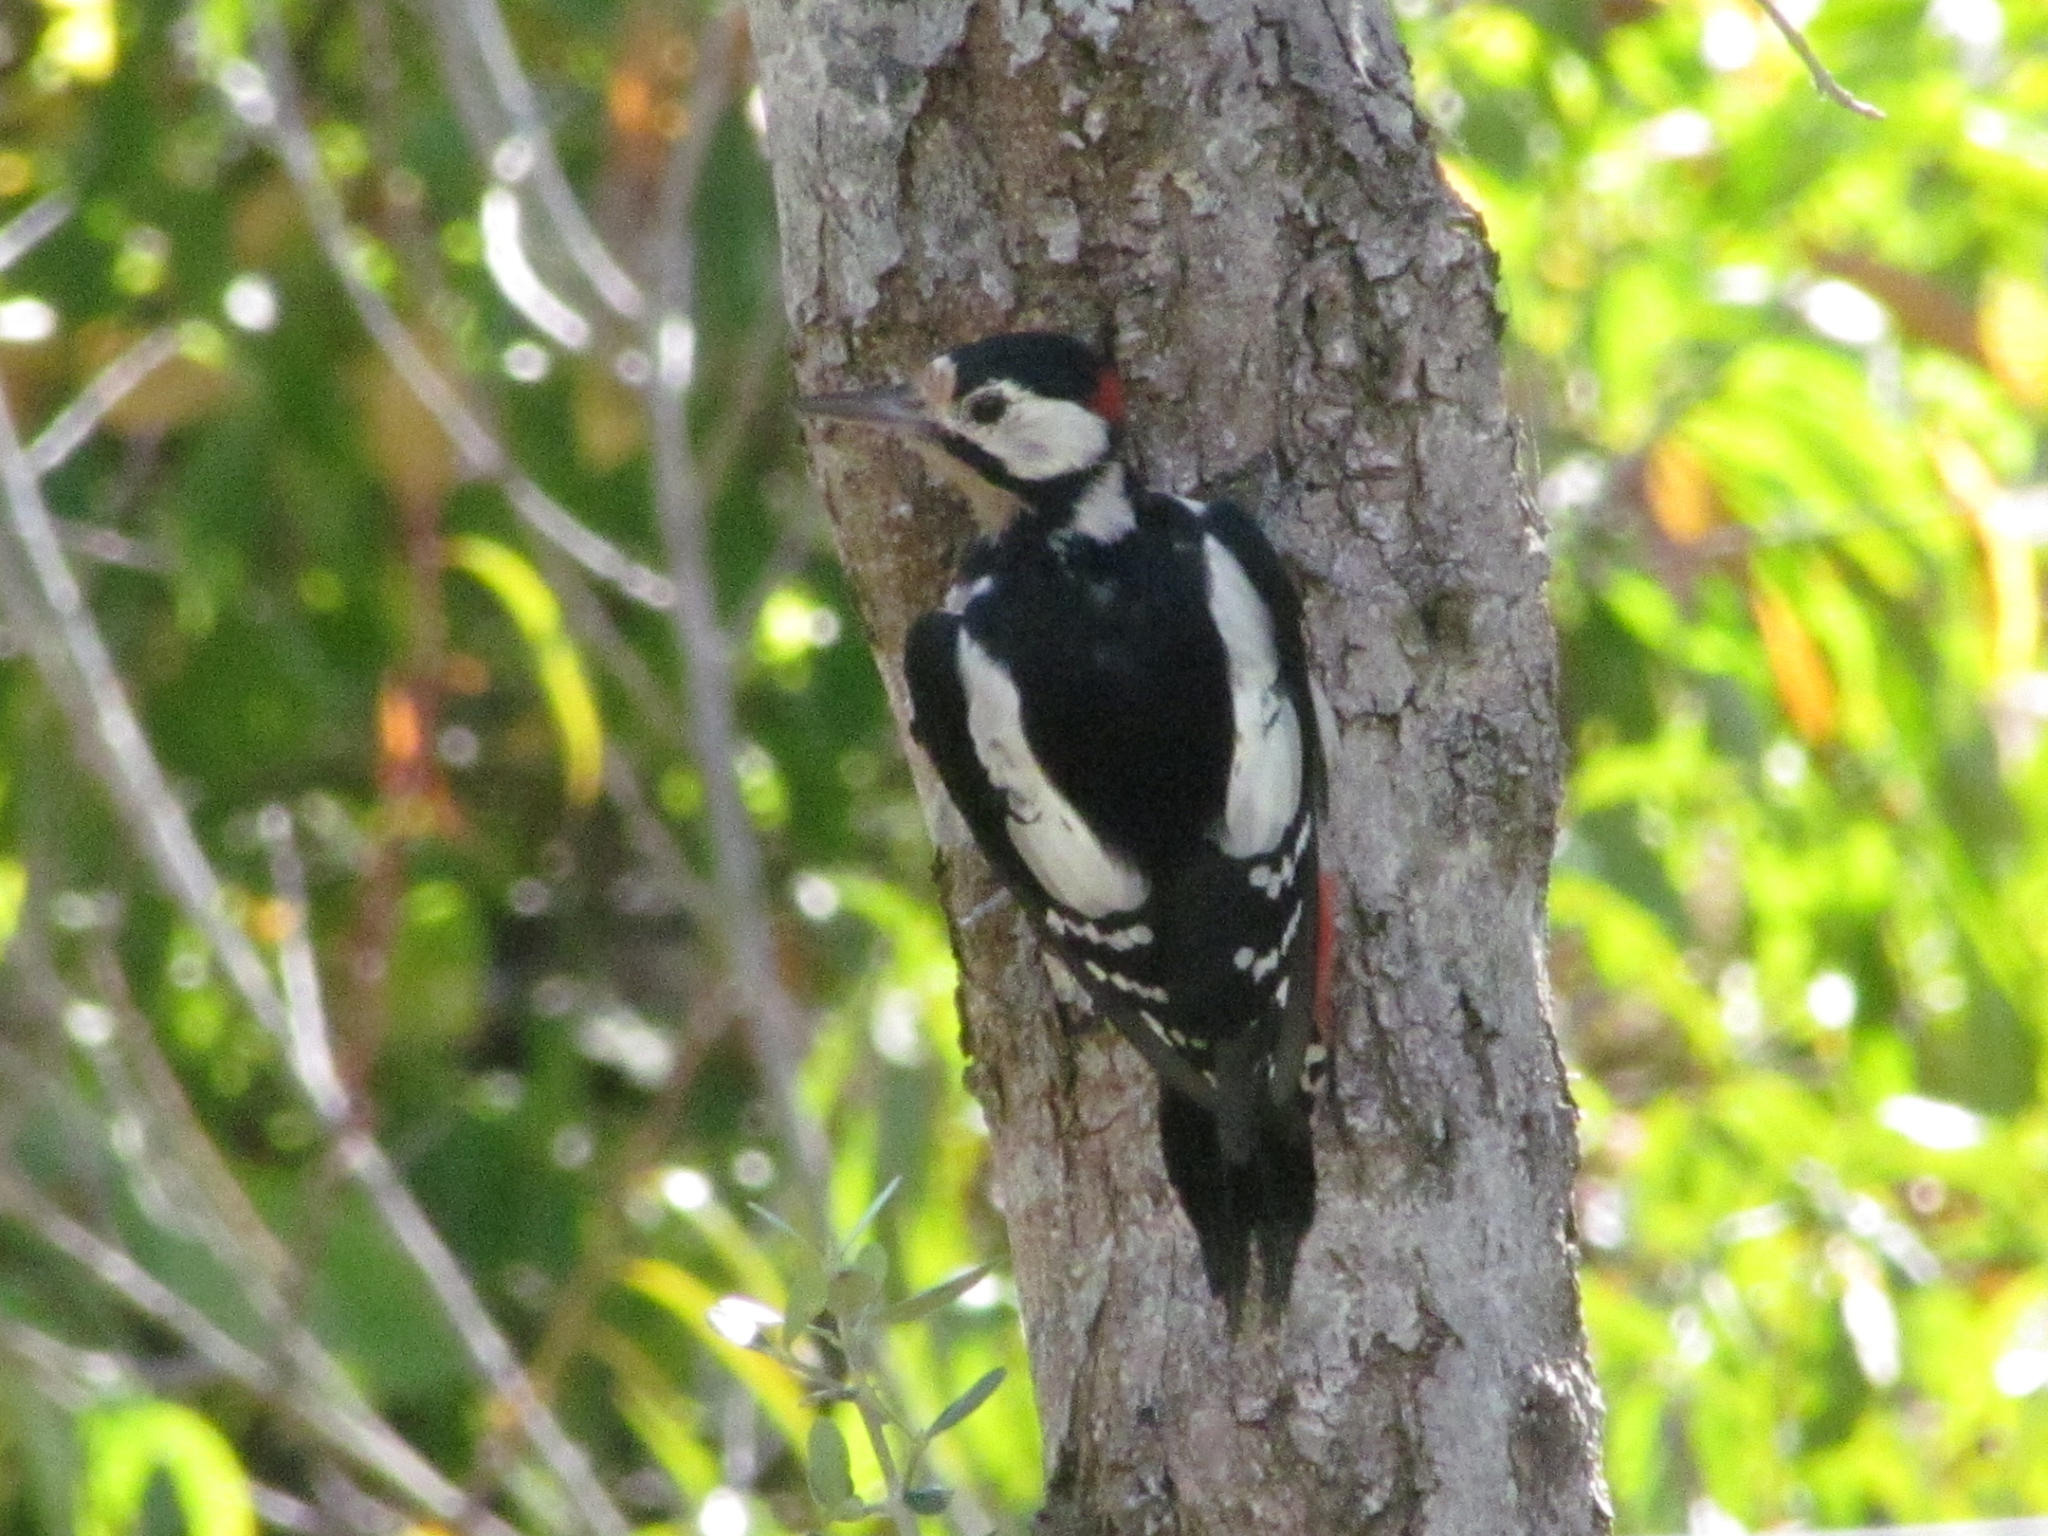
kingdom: Animalia
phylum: Chordata
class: Aves
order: Piciformes
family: Picidae
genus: Dendrocopos
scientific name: Dendrocopos major
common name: Great spotted woodpecker
